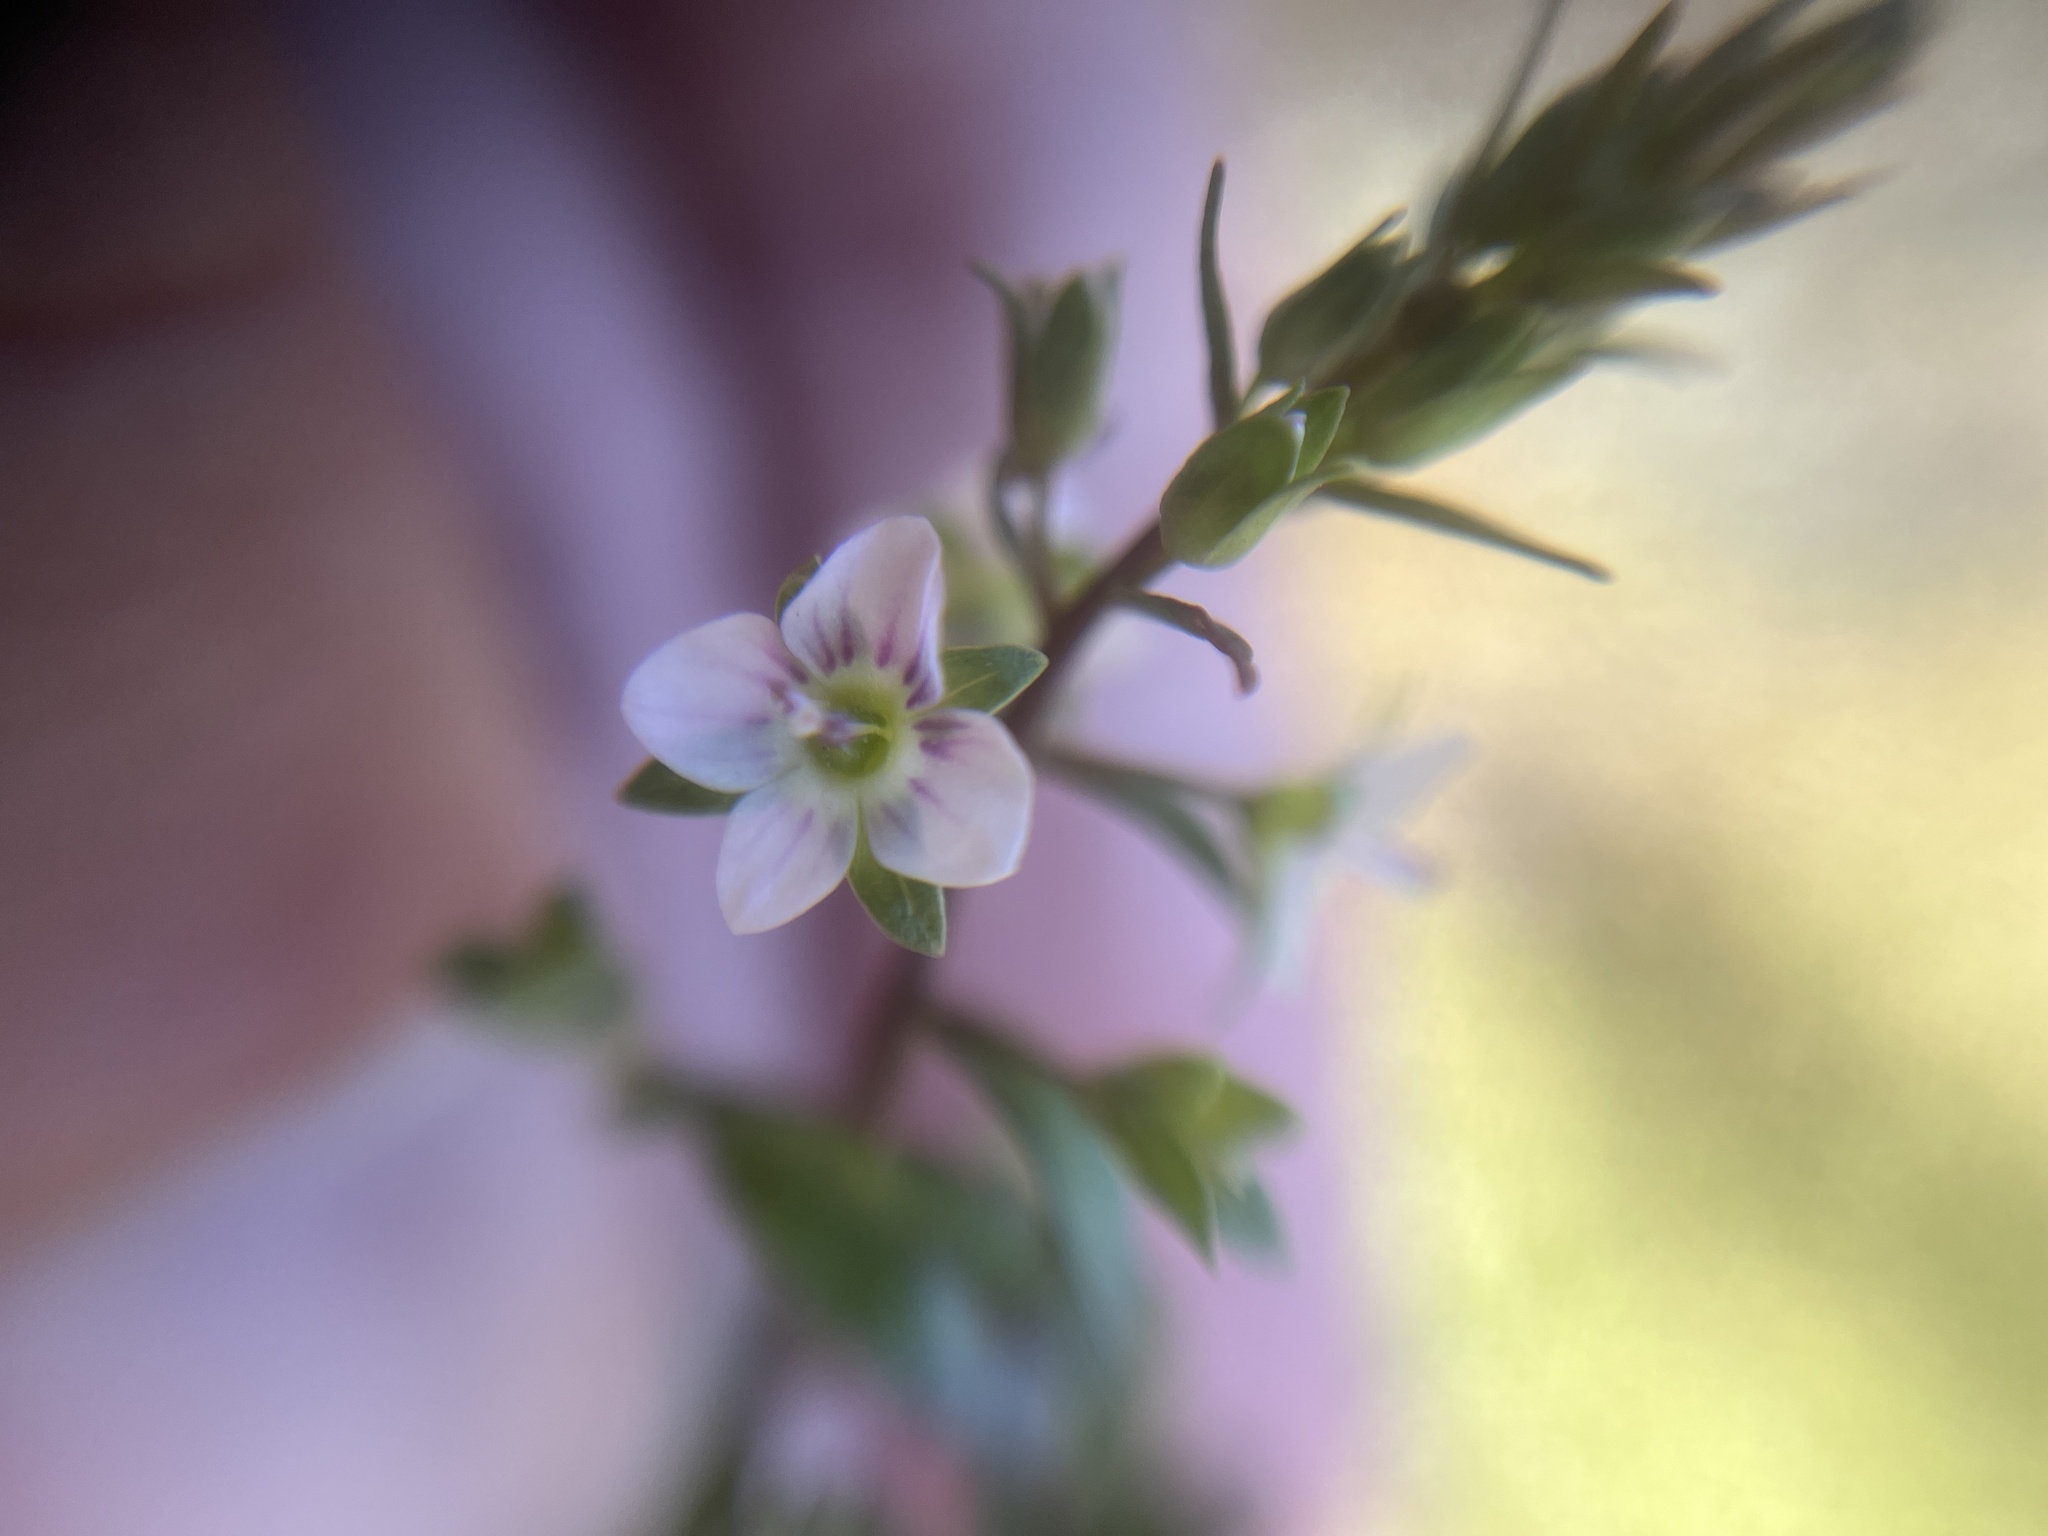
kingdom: Plantae
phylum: Tracheophyta
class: Magnoliopsida
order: Lamiales
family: Plantaginaceae
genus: Veronica
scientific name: Veronica catenata
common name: Pink water-speedwell
